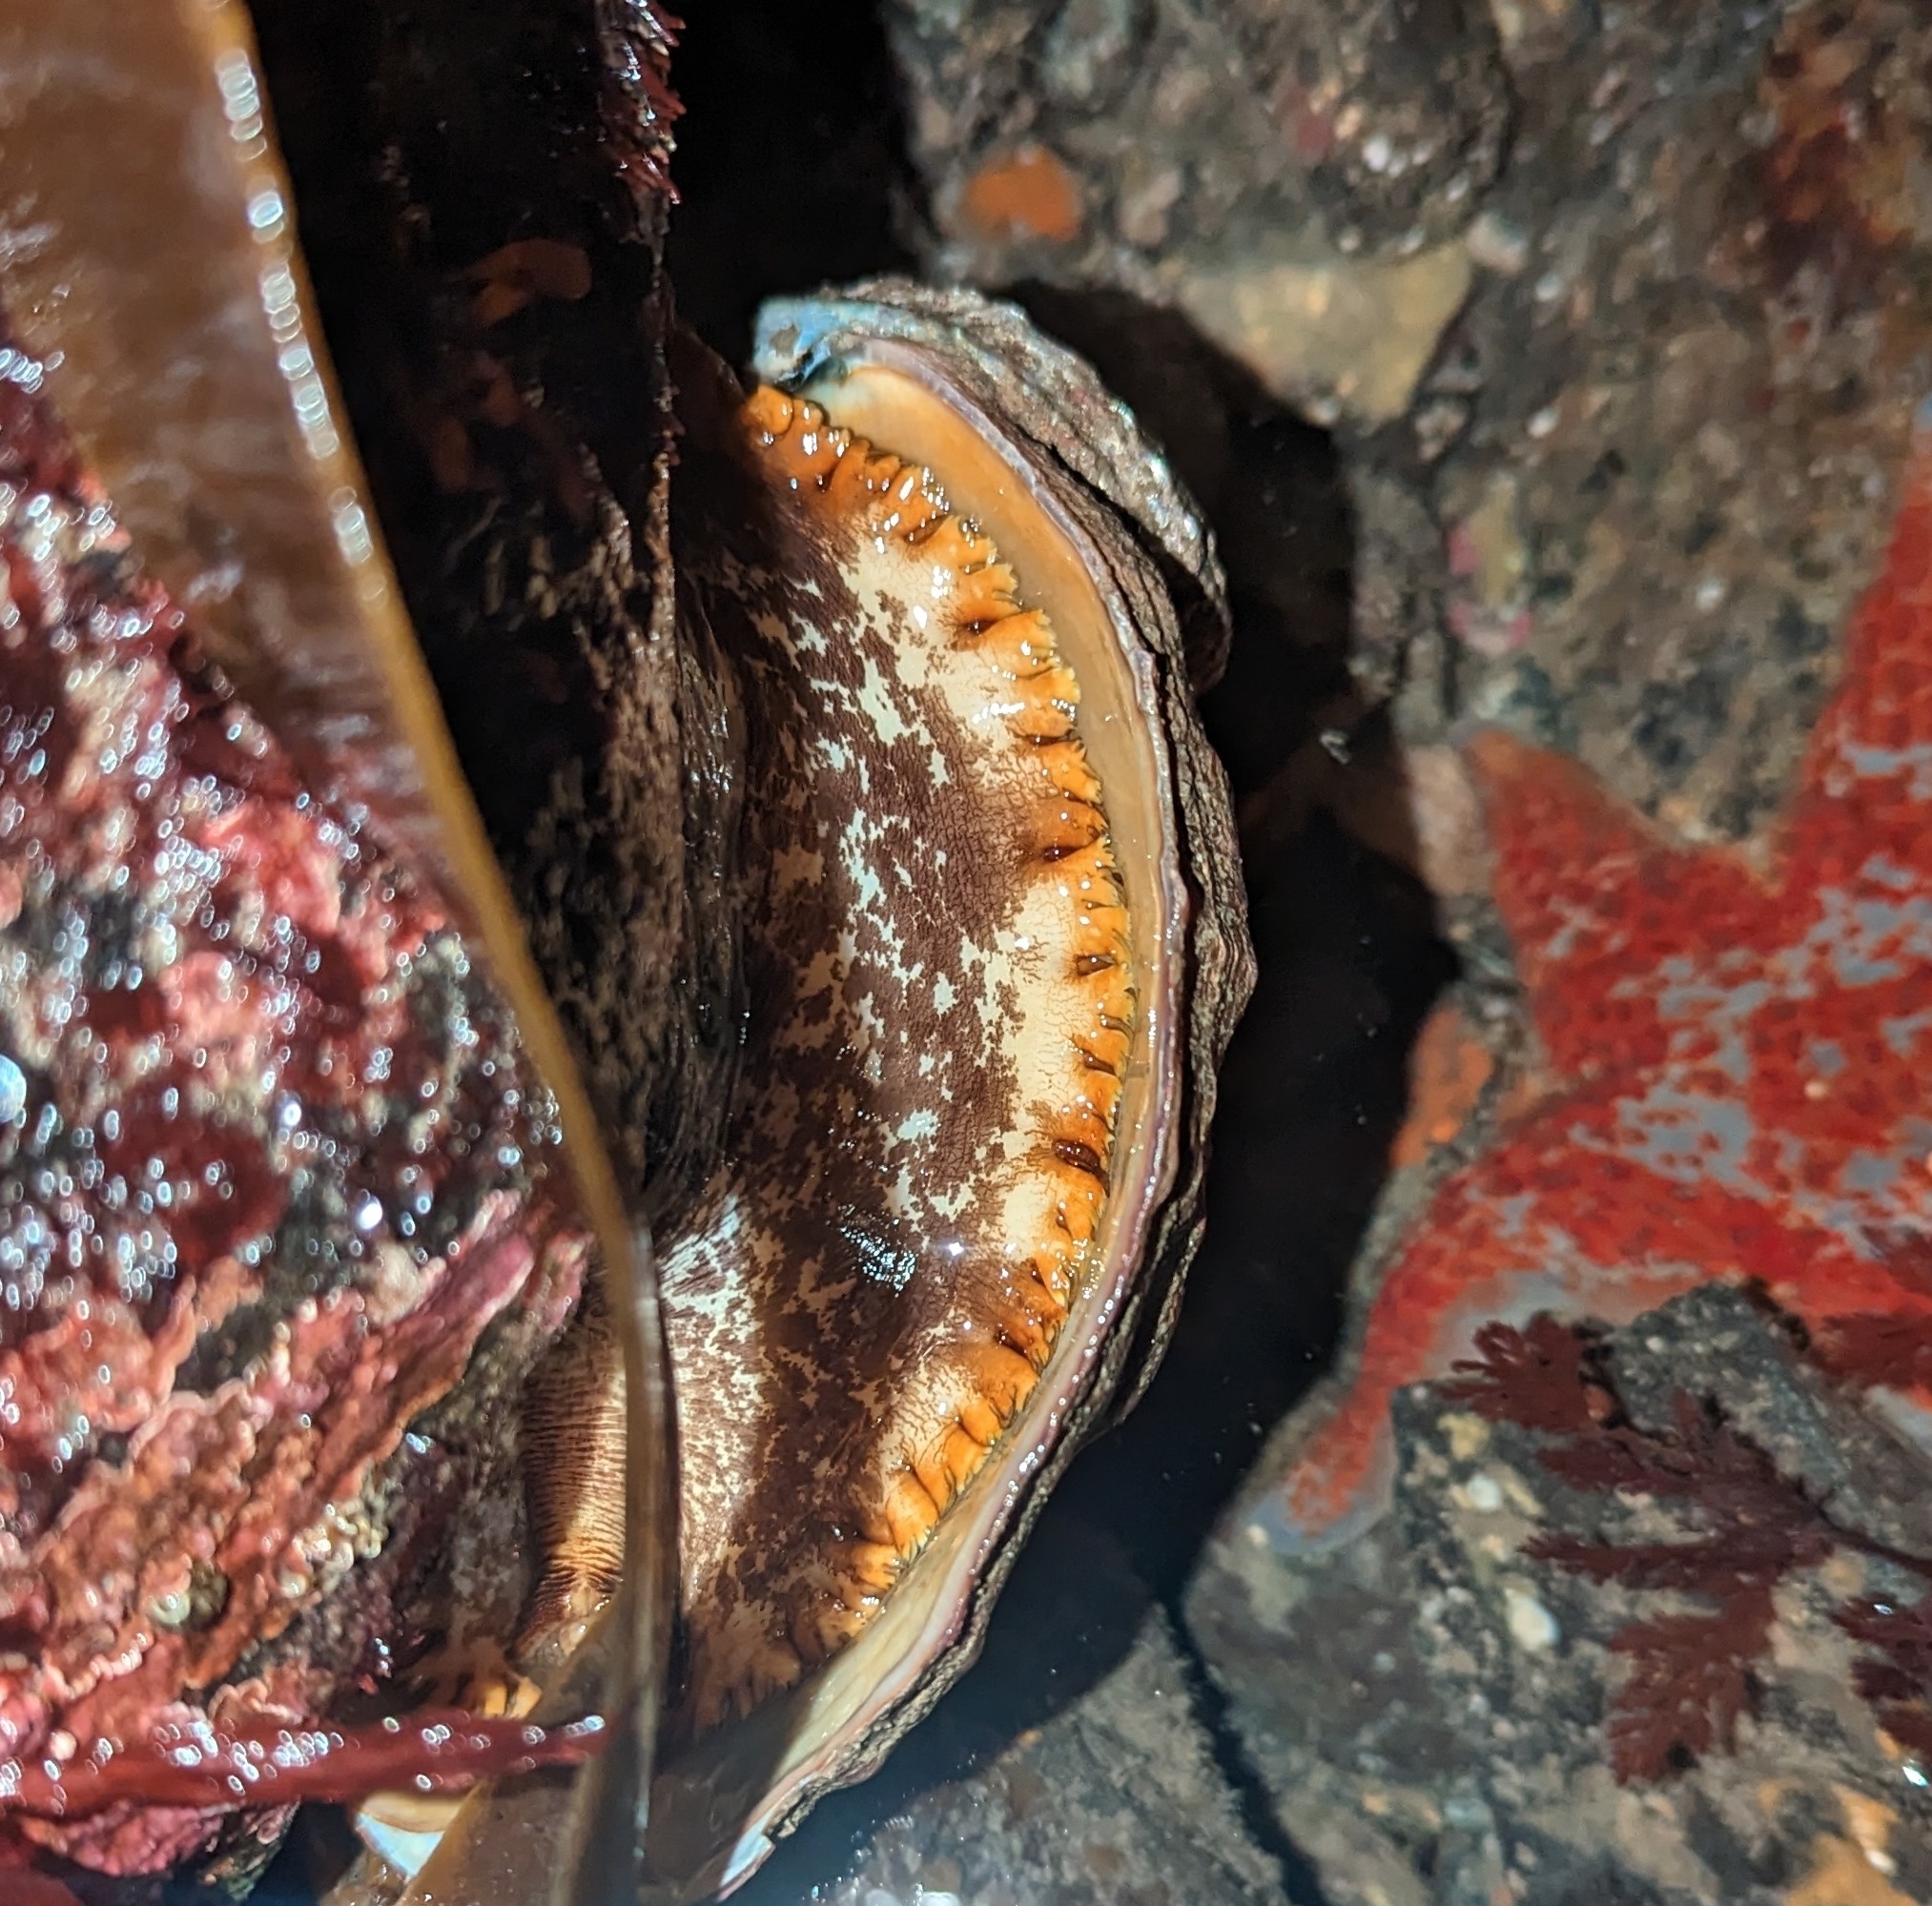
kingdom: Animalia
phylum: Mollusca
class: Gastropoda
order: Lepetellida
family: Haliotidae
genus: Haliotis
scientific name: Haliotis kamtschatkana
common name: Pinto abalone
